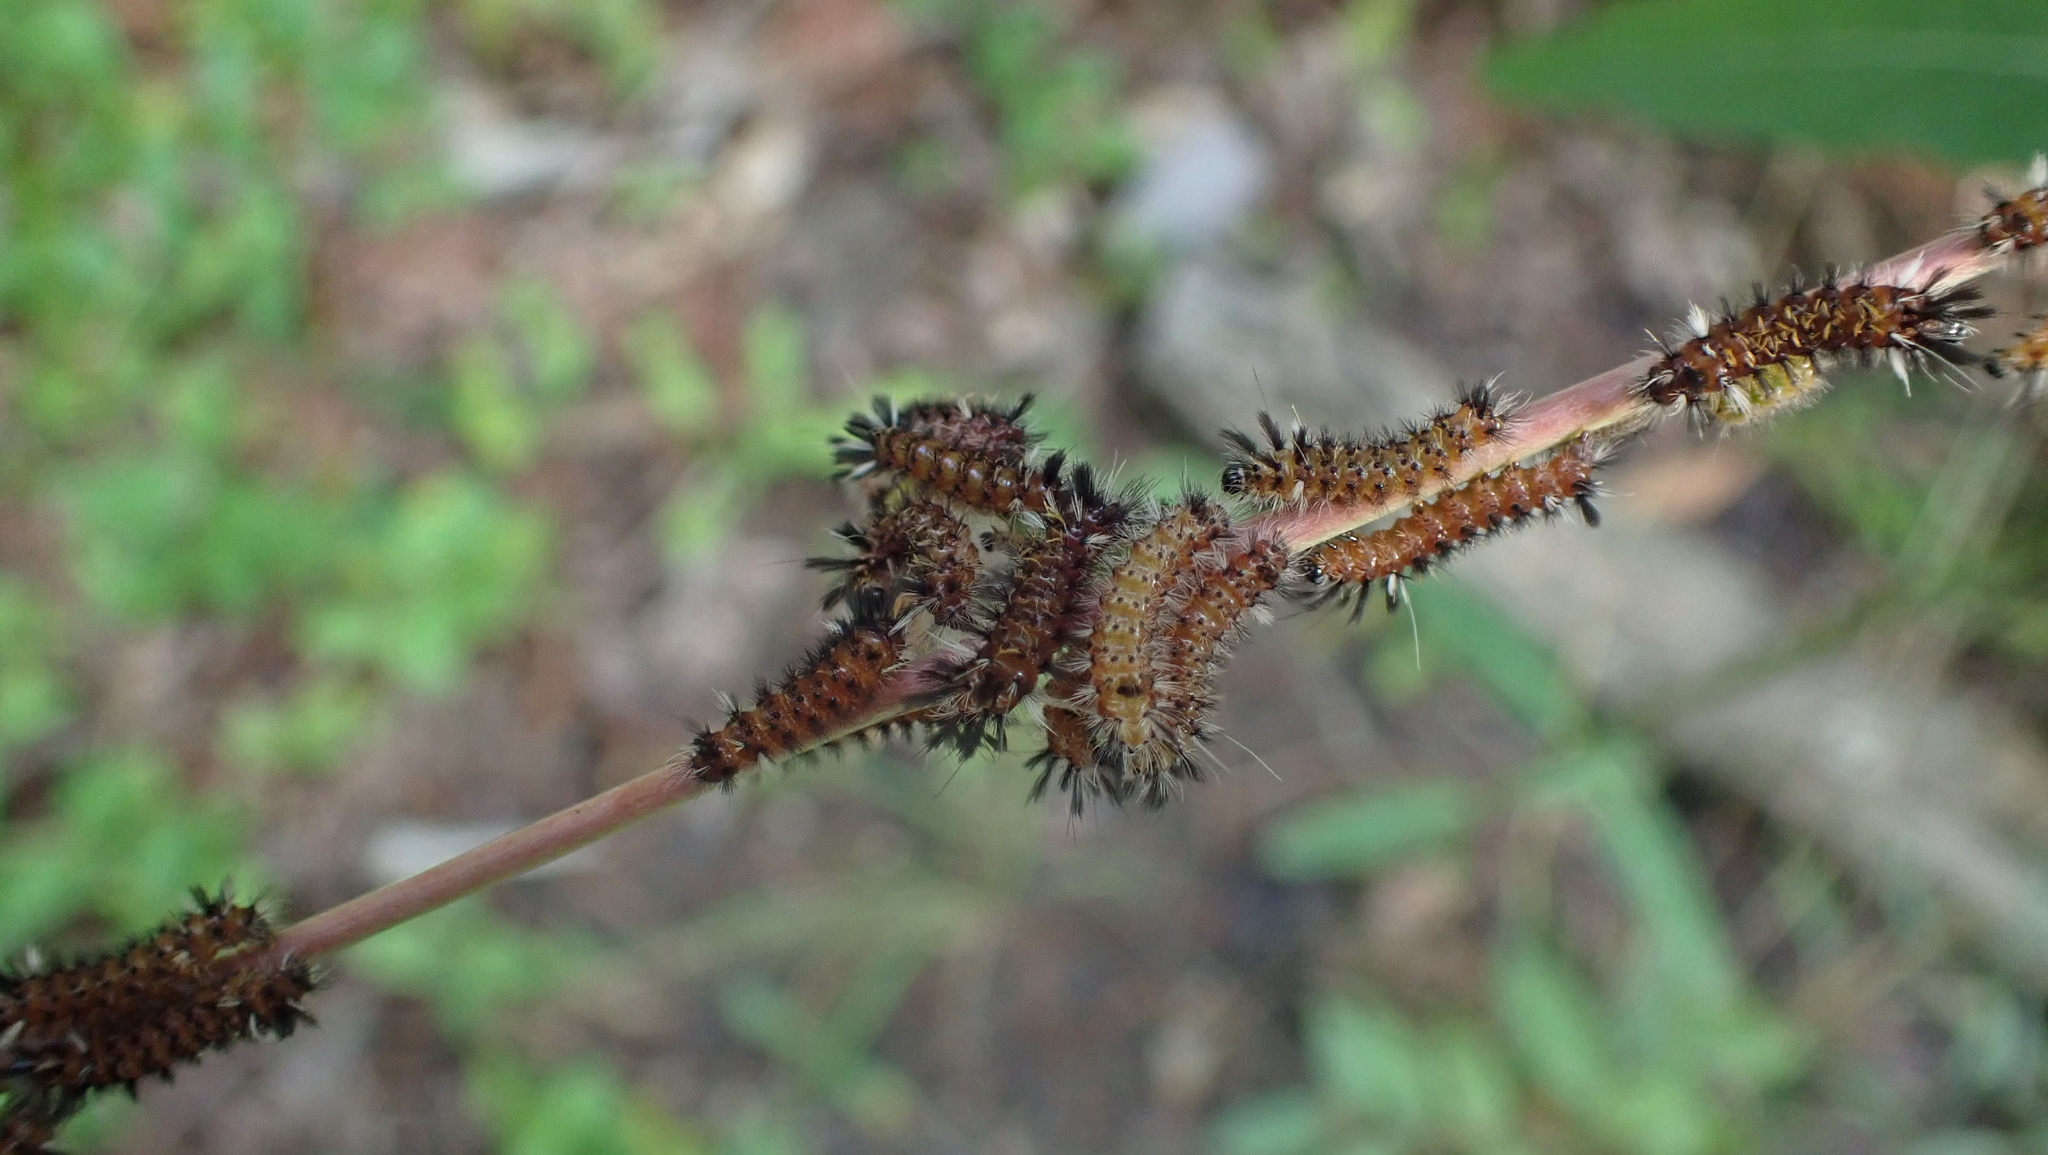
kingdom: Animalia
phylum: Arthropoda
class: Insecta
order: Lepidoptera
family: Erebidae
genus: Euchaetes
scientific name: Euchaetes egle
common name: Milkweed tussock moth
